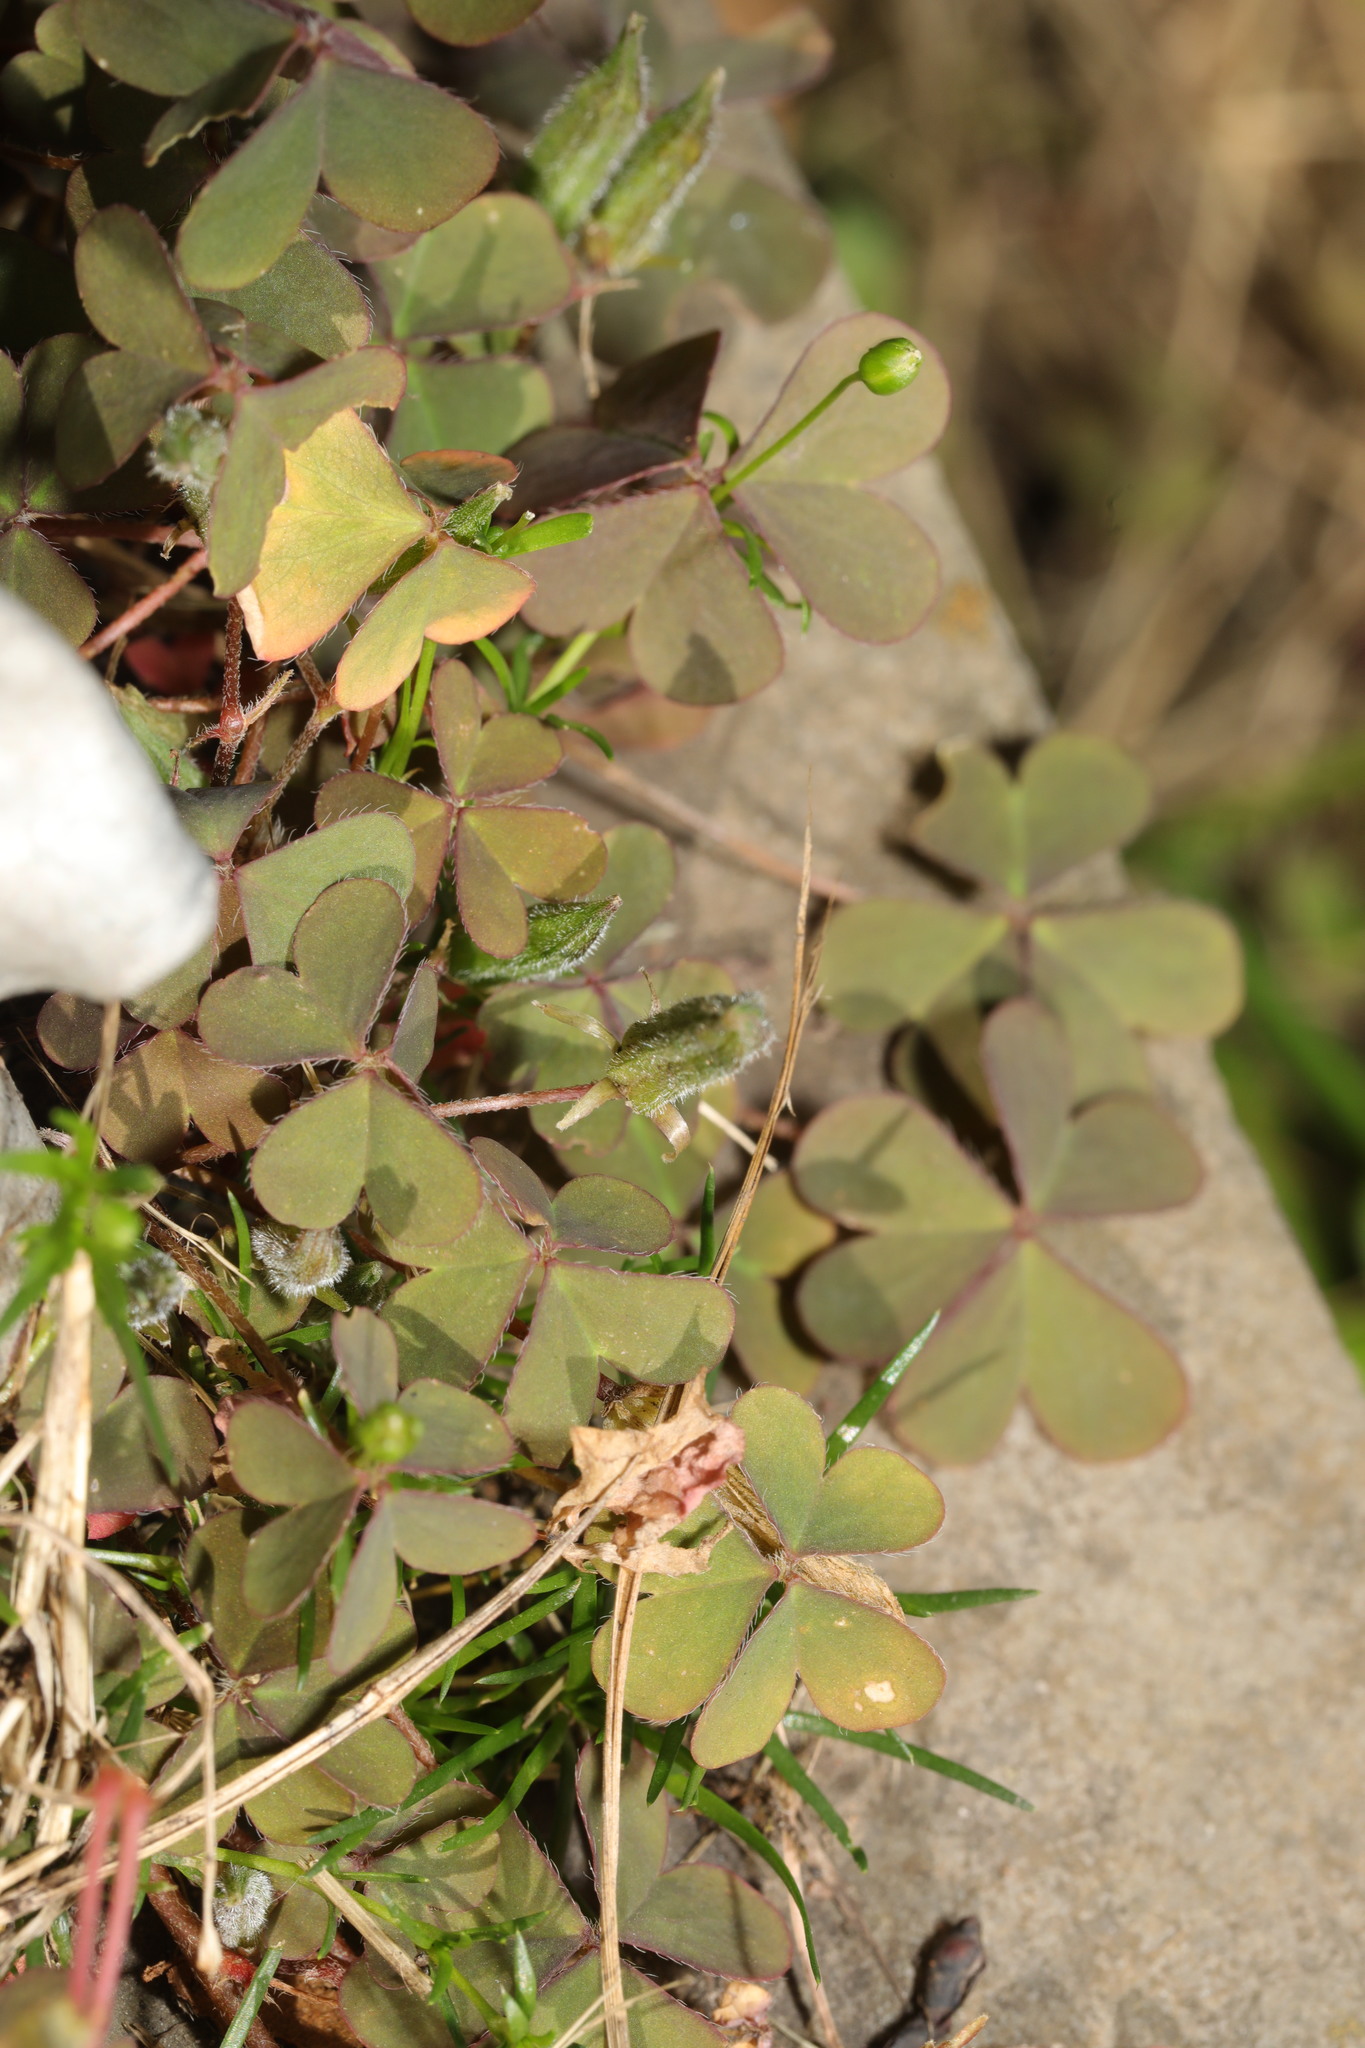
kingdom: Plantae
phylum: Tracheophyta
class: Magnoliopsida
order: Oxalidales
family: Oxalidaceae
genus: Oxalis
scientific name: Oxalis corniculata
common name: Procumbent yellow-sorrel
